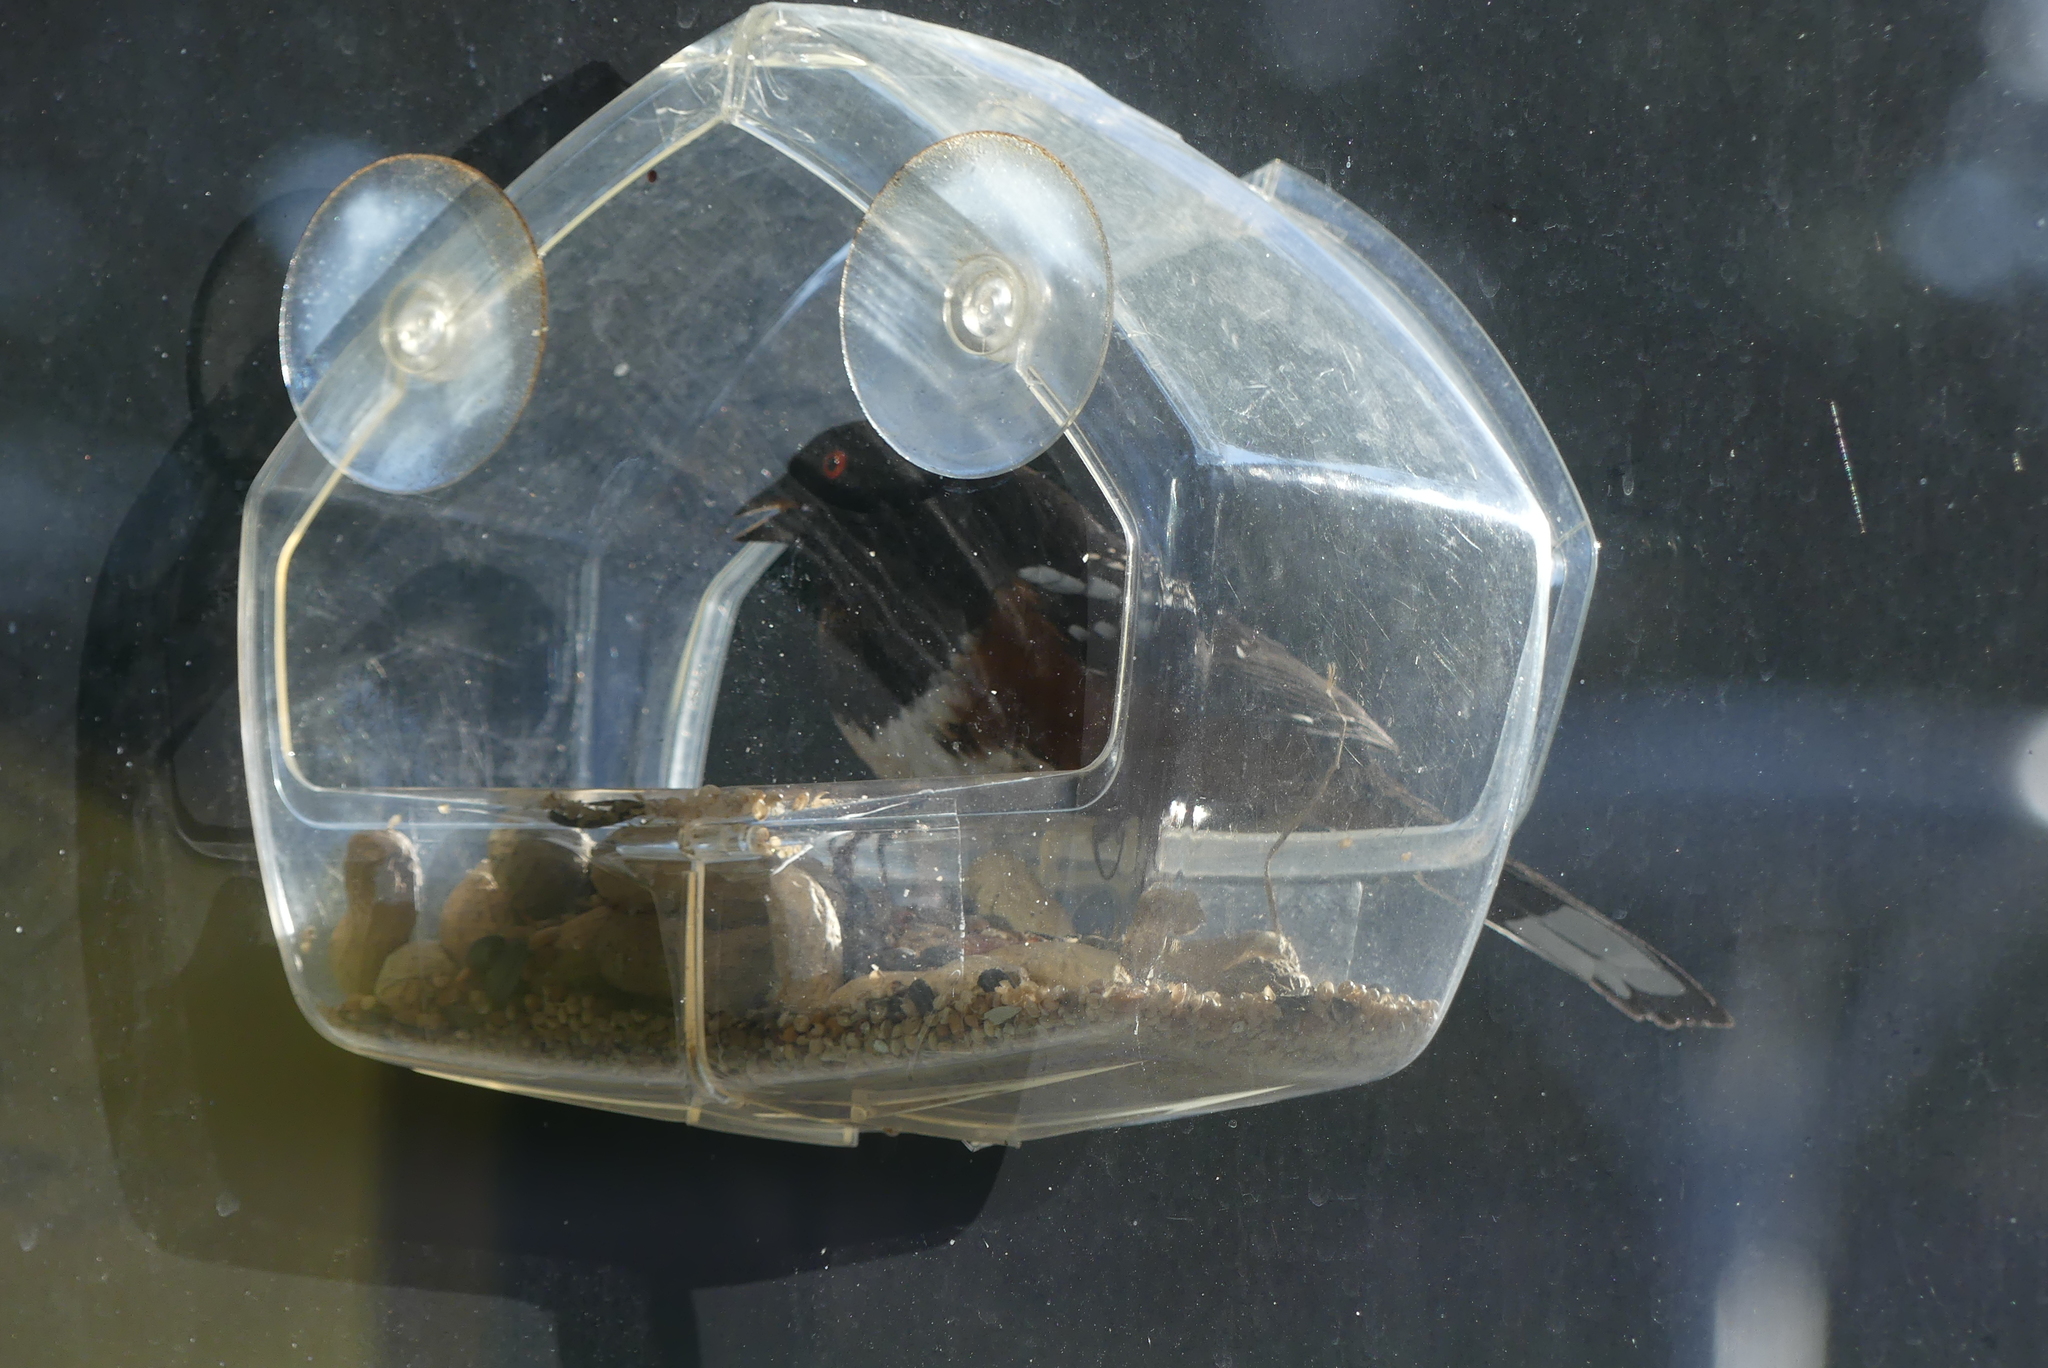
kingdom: Animalia
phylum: Chordata
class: Aves
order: Passeriformes
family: Passerellidae
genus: Pipilo
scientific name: Pipilo maculatus
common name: Spotted towhee
